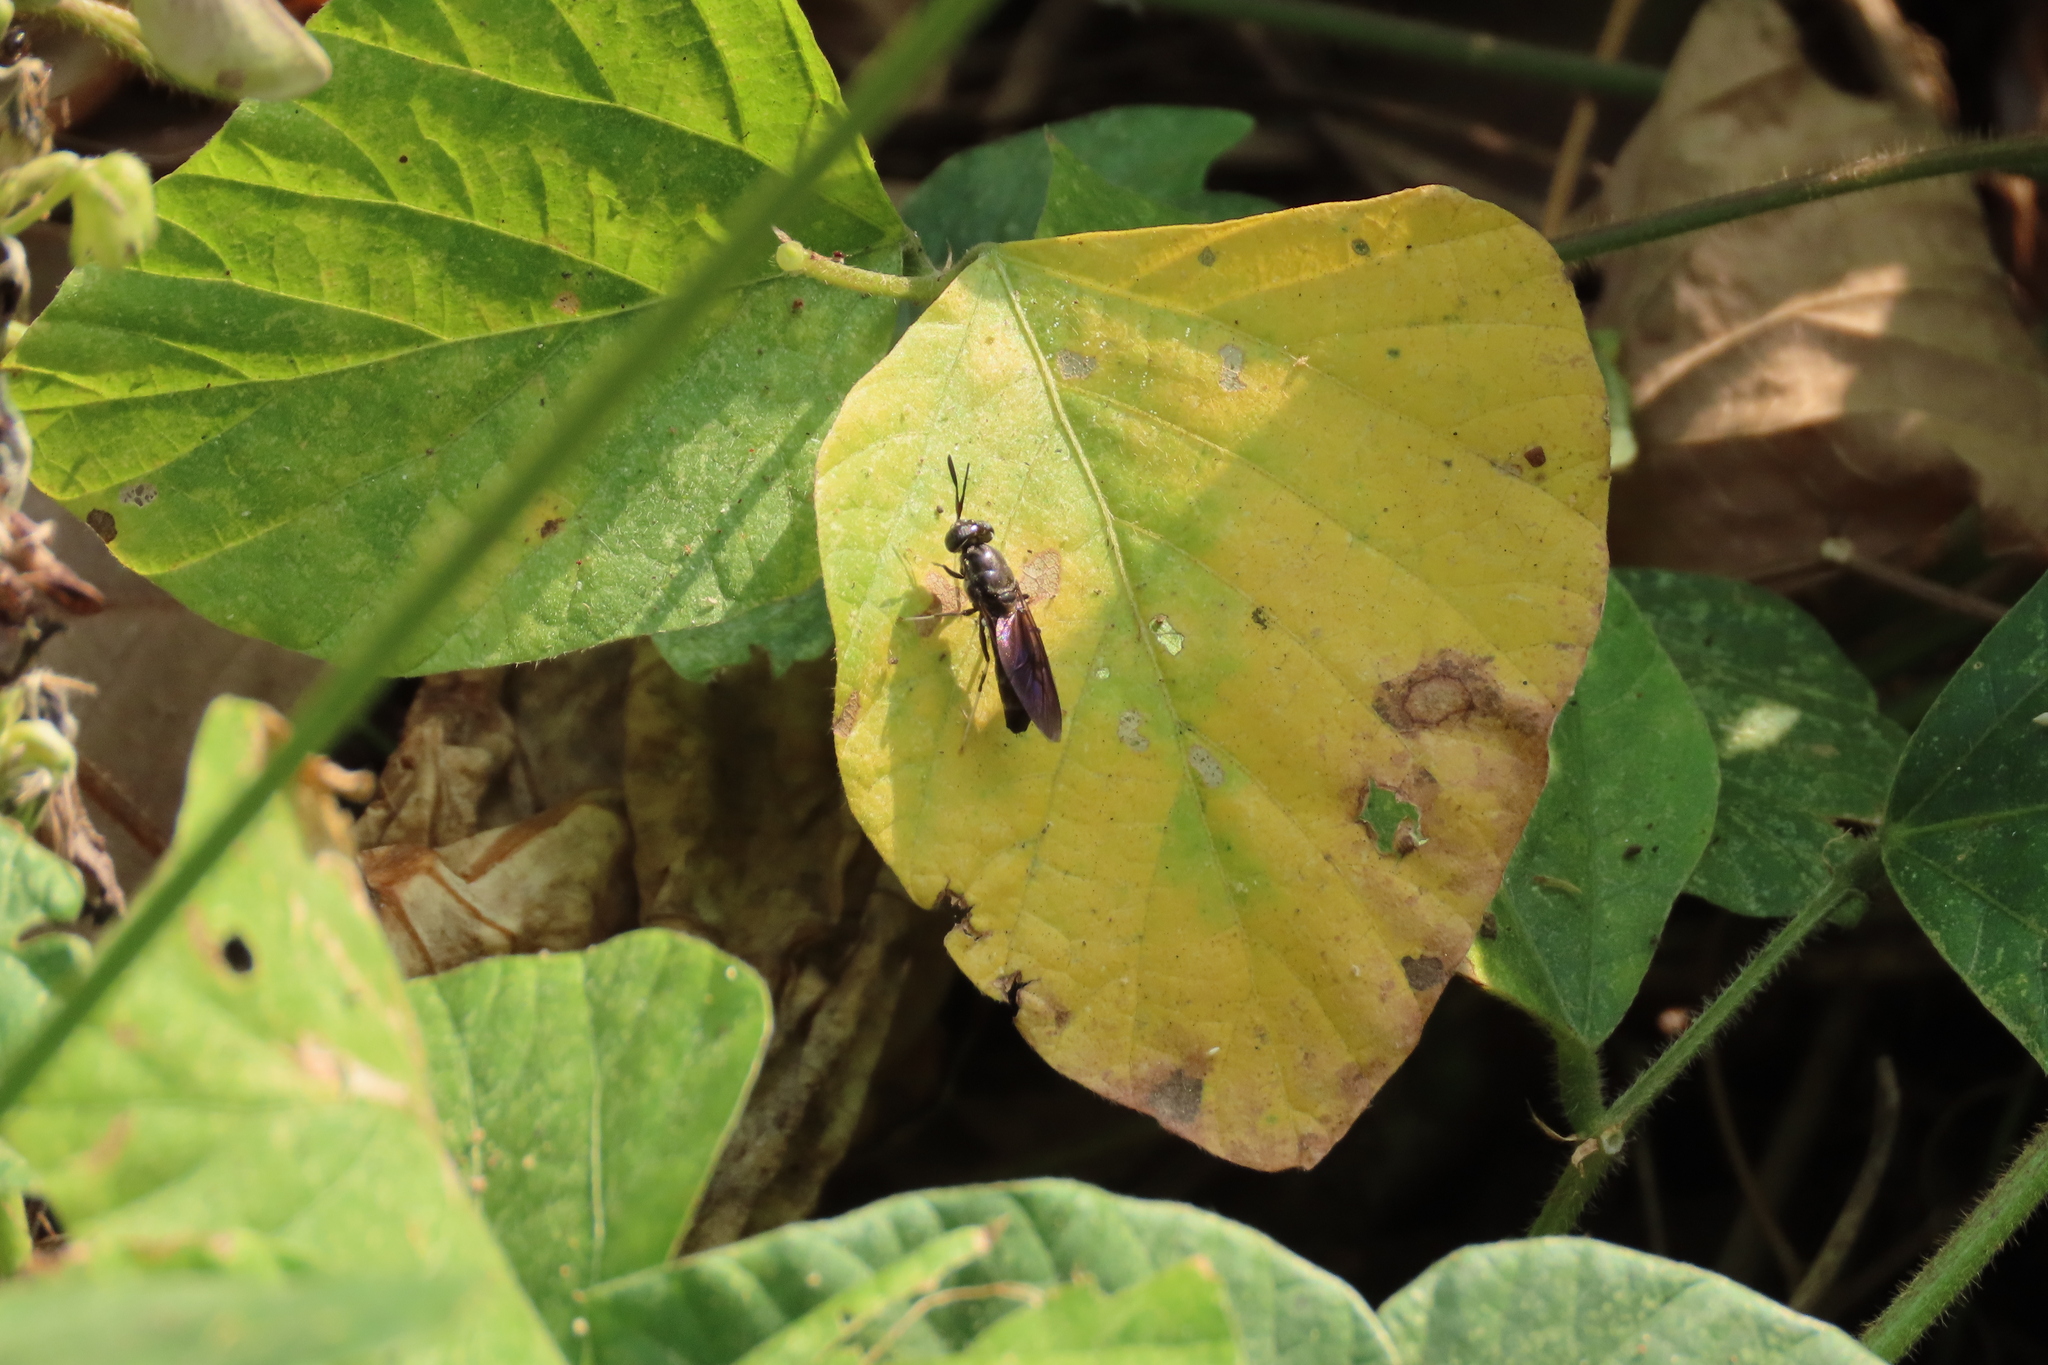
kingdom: Animalia
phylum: Arthropoda
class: Insecta
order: Diptera
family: Stratiomyidae
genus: Hermetia
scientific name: Hermetia illucens
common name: Black soldier fly
